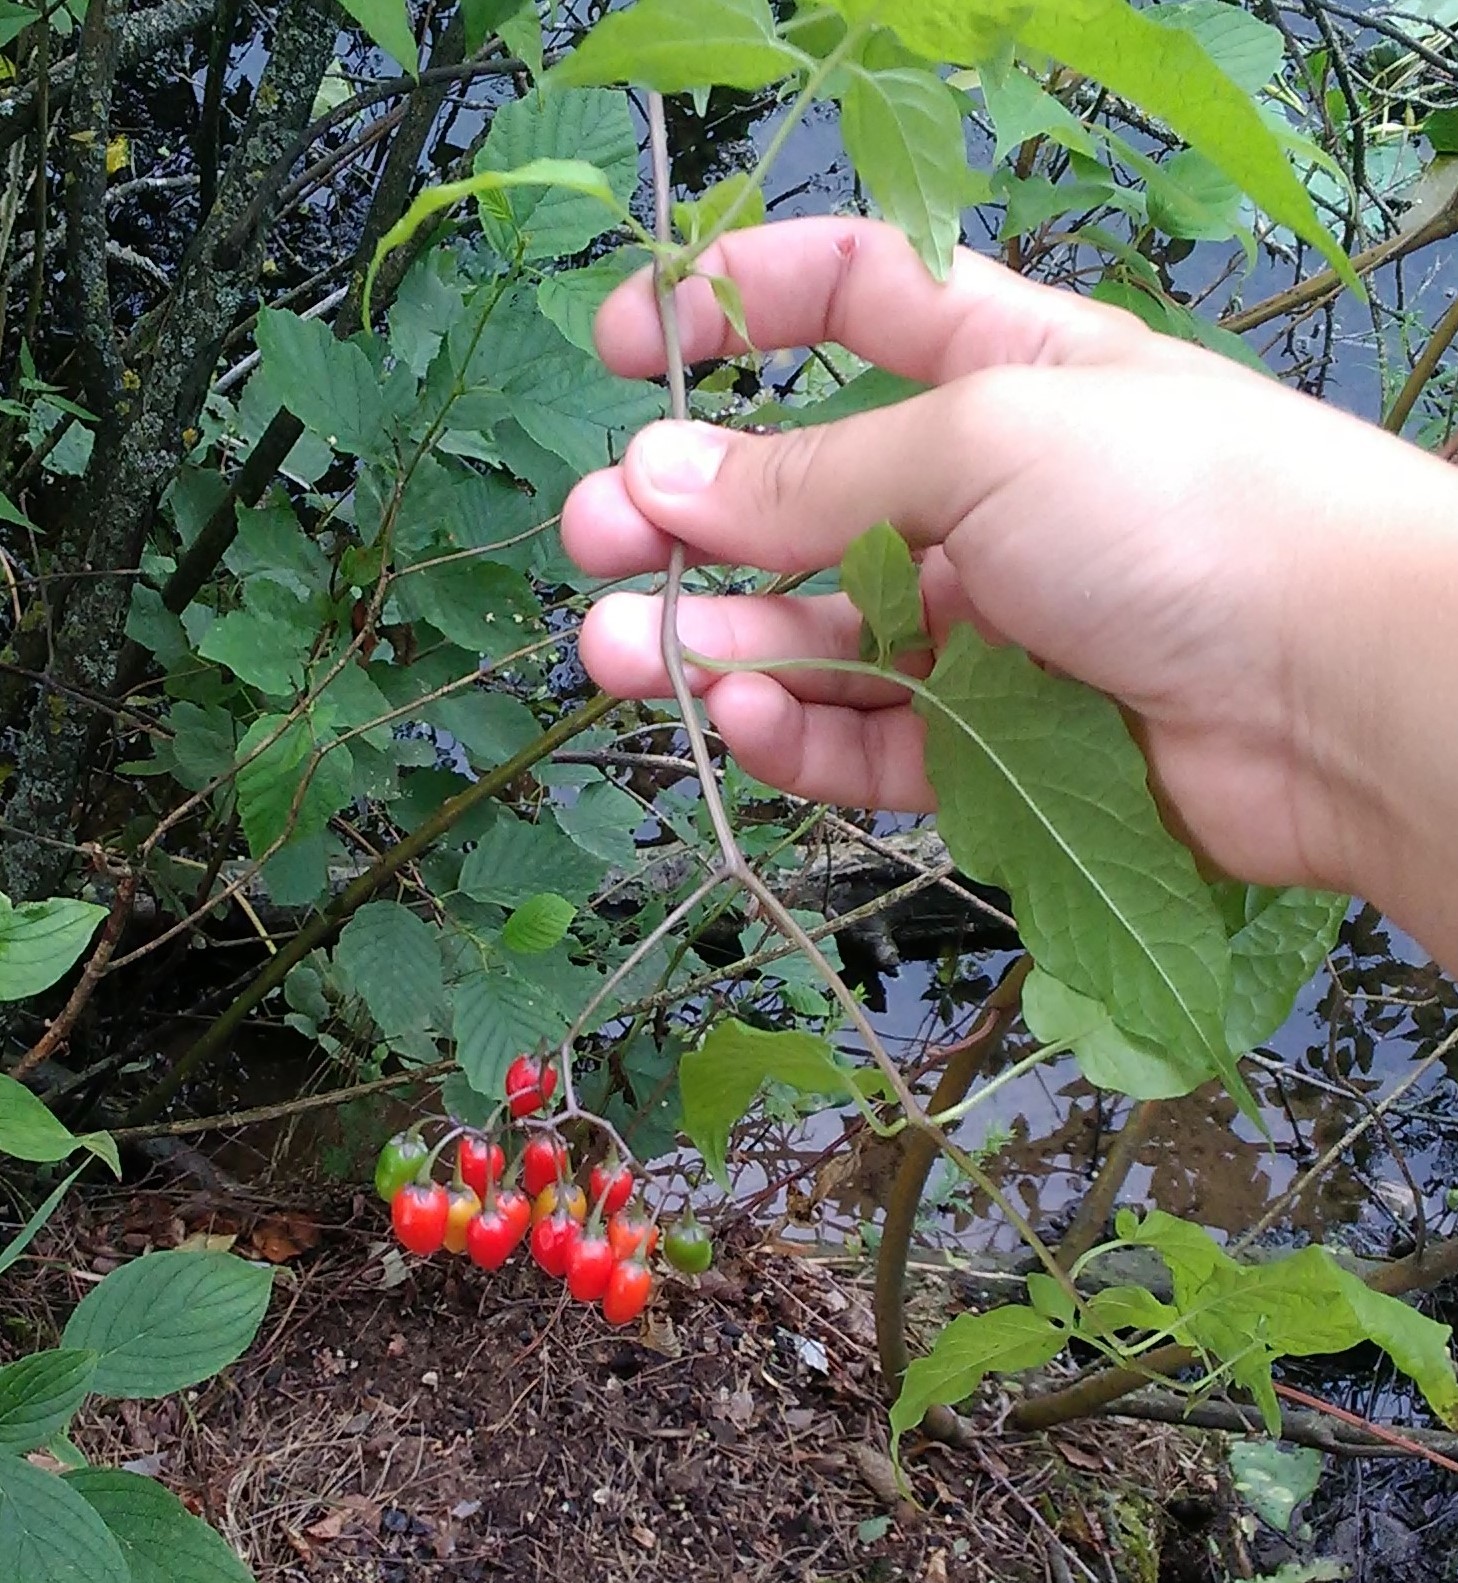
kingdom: Plantae
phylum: Tracheophyta
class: Magnoliopsida
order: Solanales
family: Solanaceae
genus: Solanum
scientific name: Solanum dulcamara
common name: Climbing nightshade
